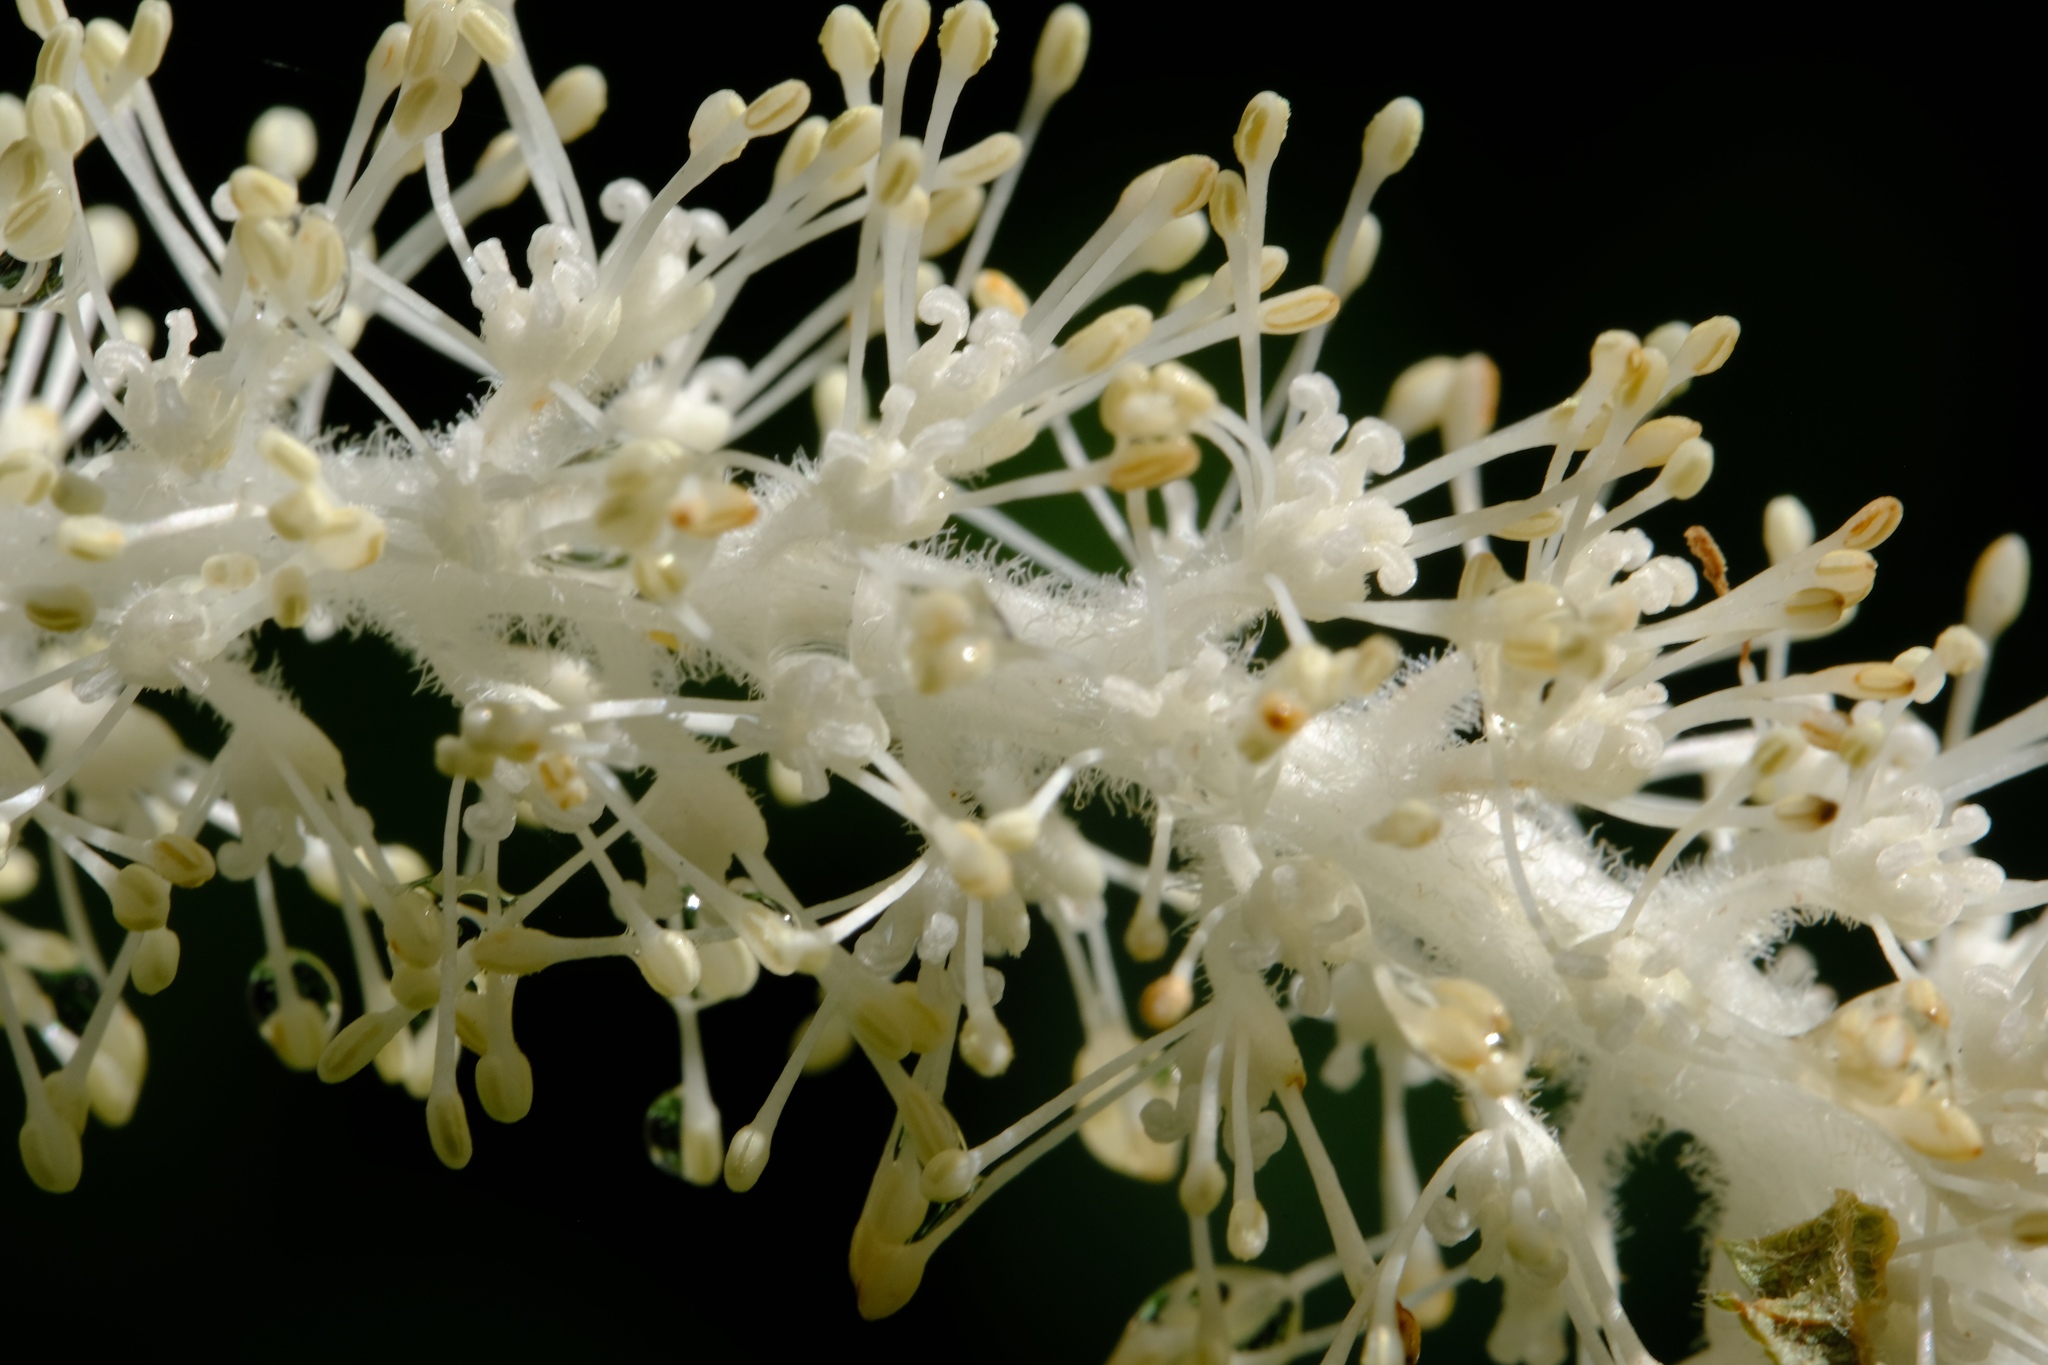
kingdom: Plantae
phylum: Tracheophyta
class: Magnoliopsida
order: Piperales
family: Saururaceae
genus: Saururus
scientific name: Saururus cernuus
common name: Lizard's-tail
